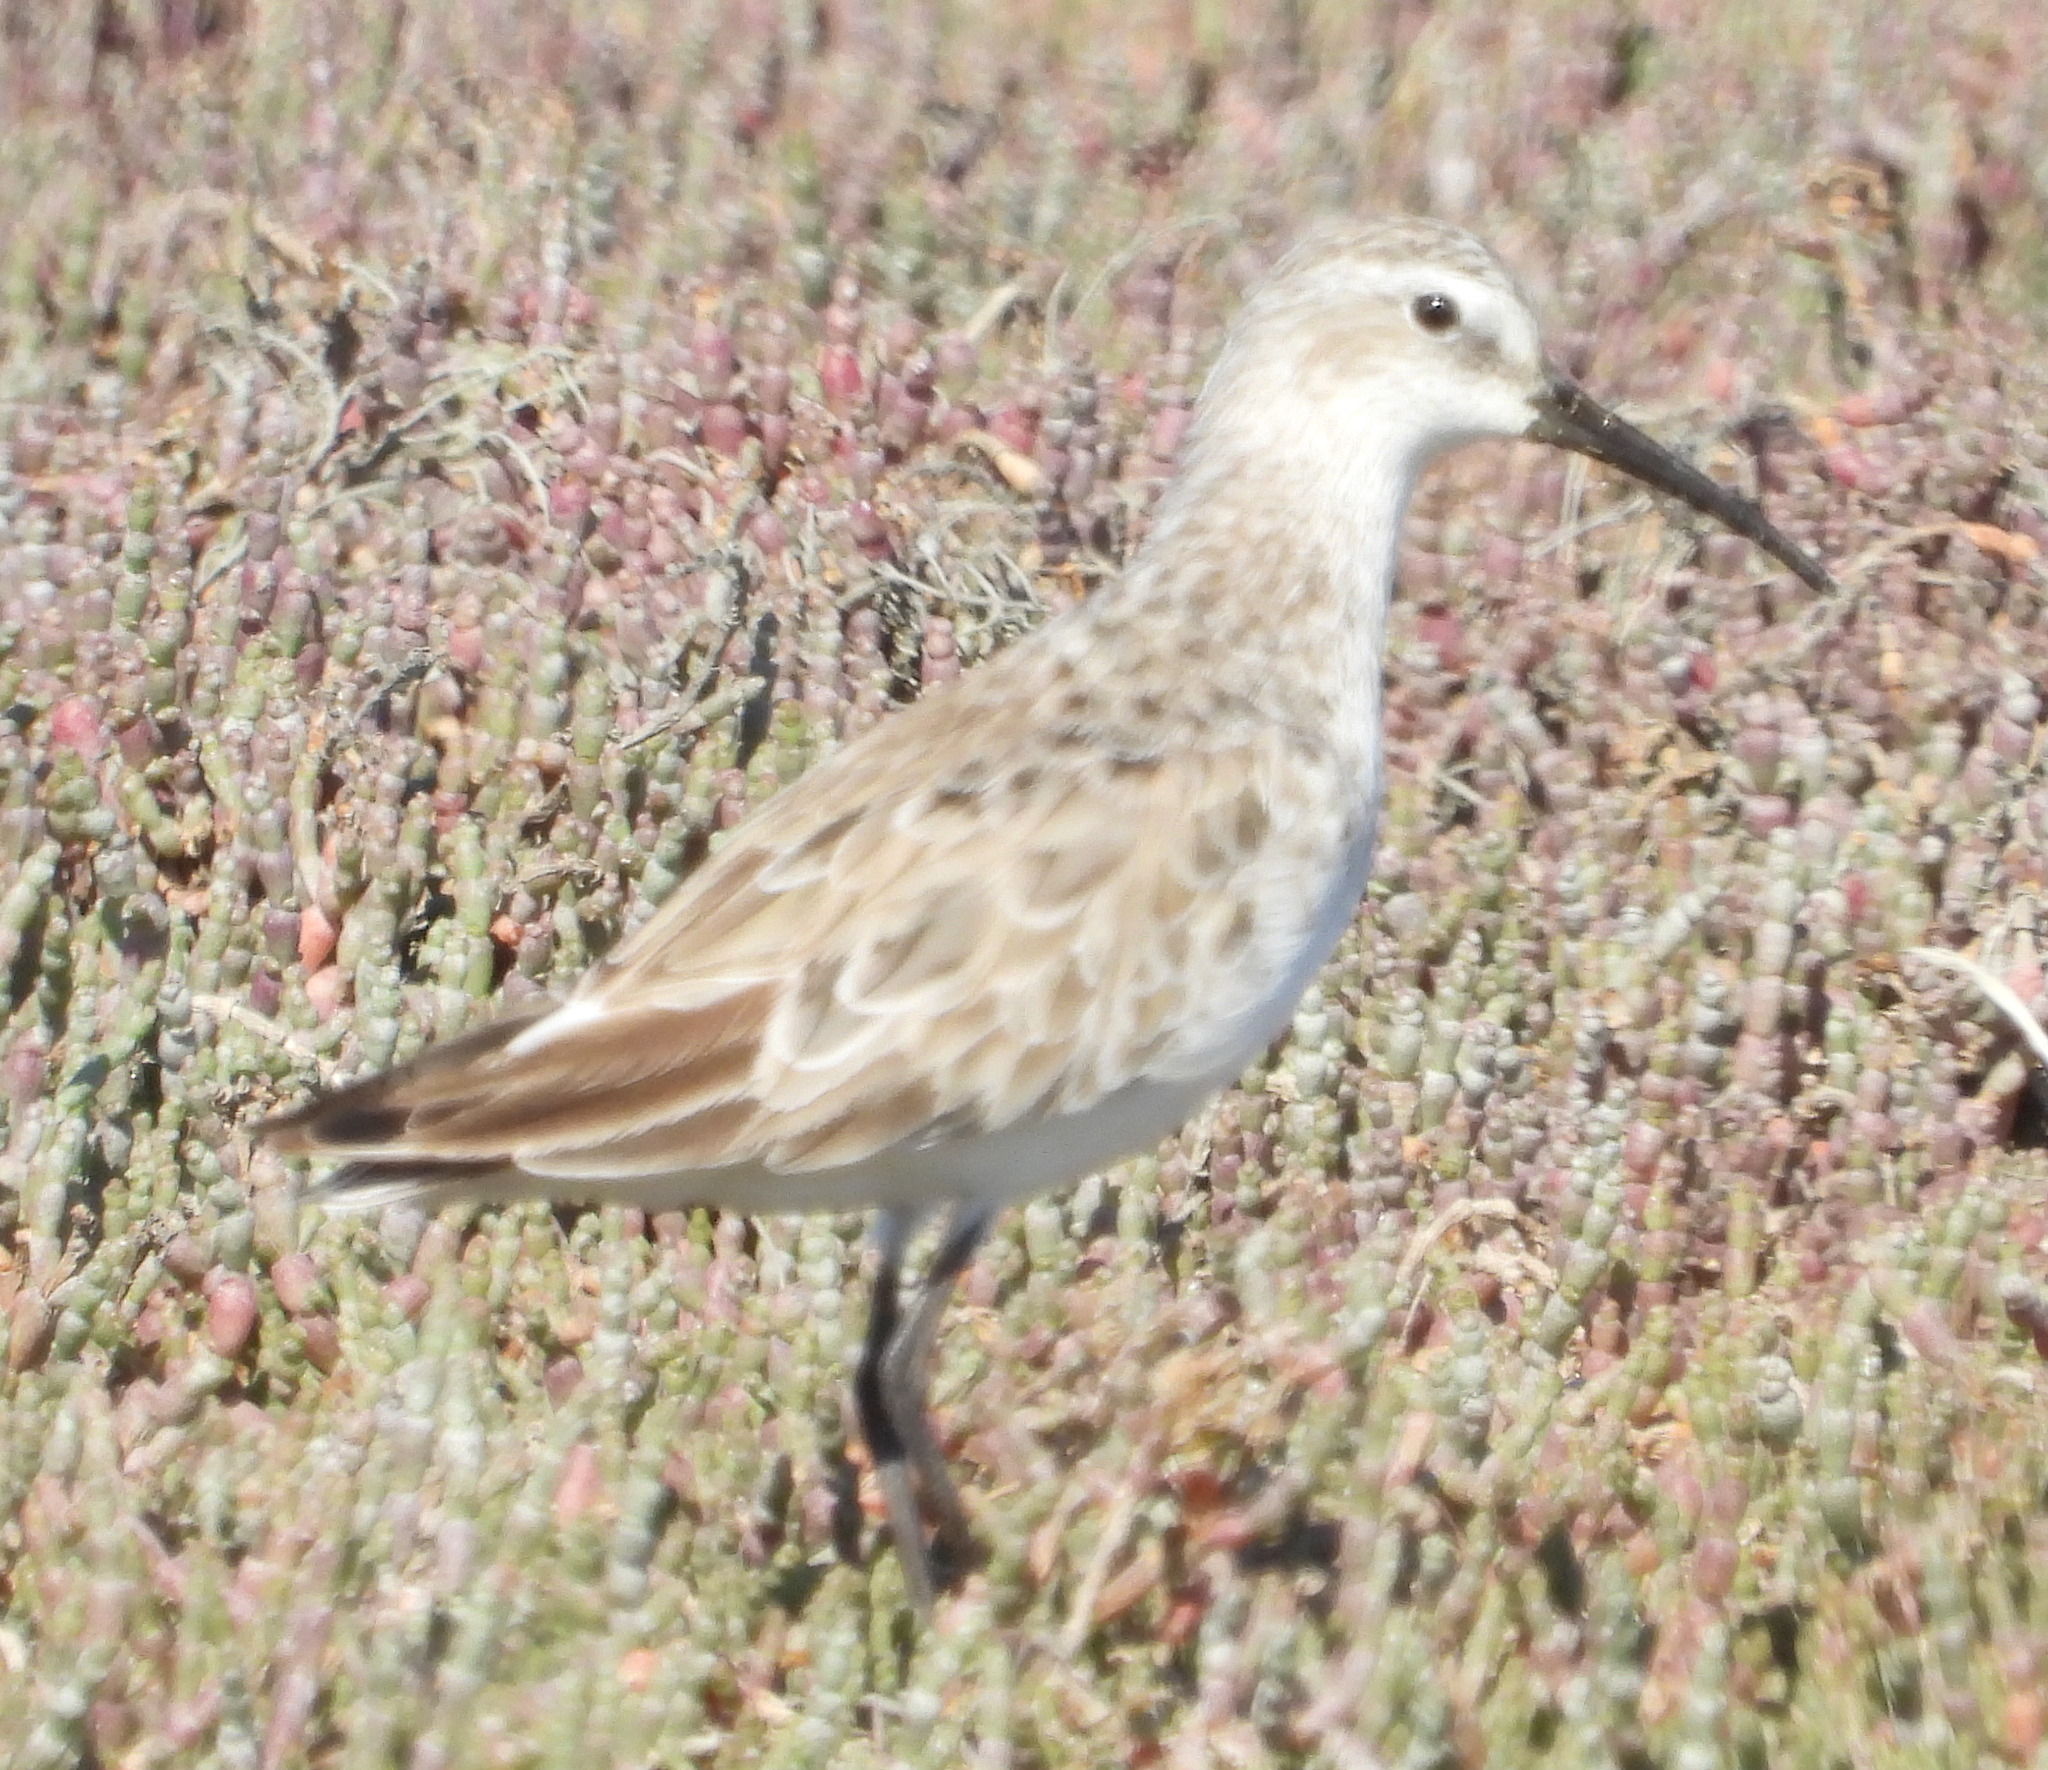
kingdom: Animalia
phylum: Chordata
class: Aves
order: Charadriiformes
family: Scolopacidae
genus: Calidris
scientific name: Calidris ferruginea
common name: Curlew sandpiper
